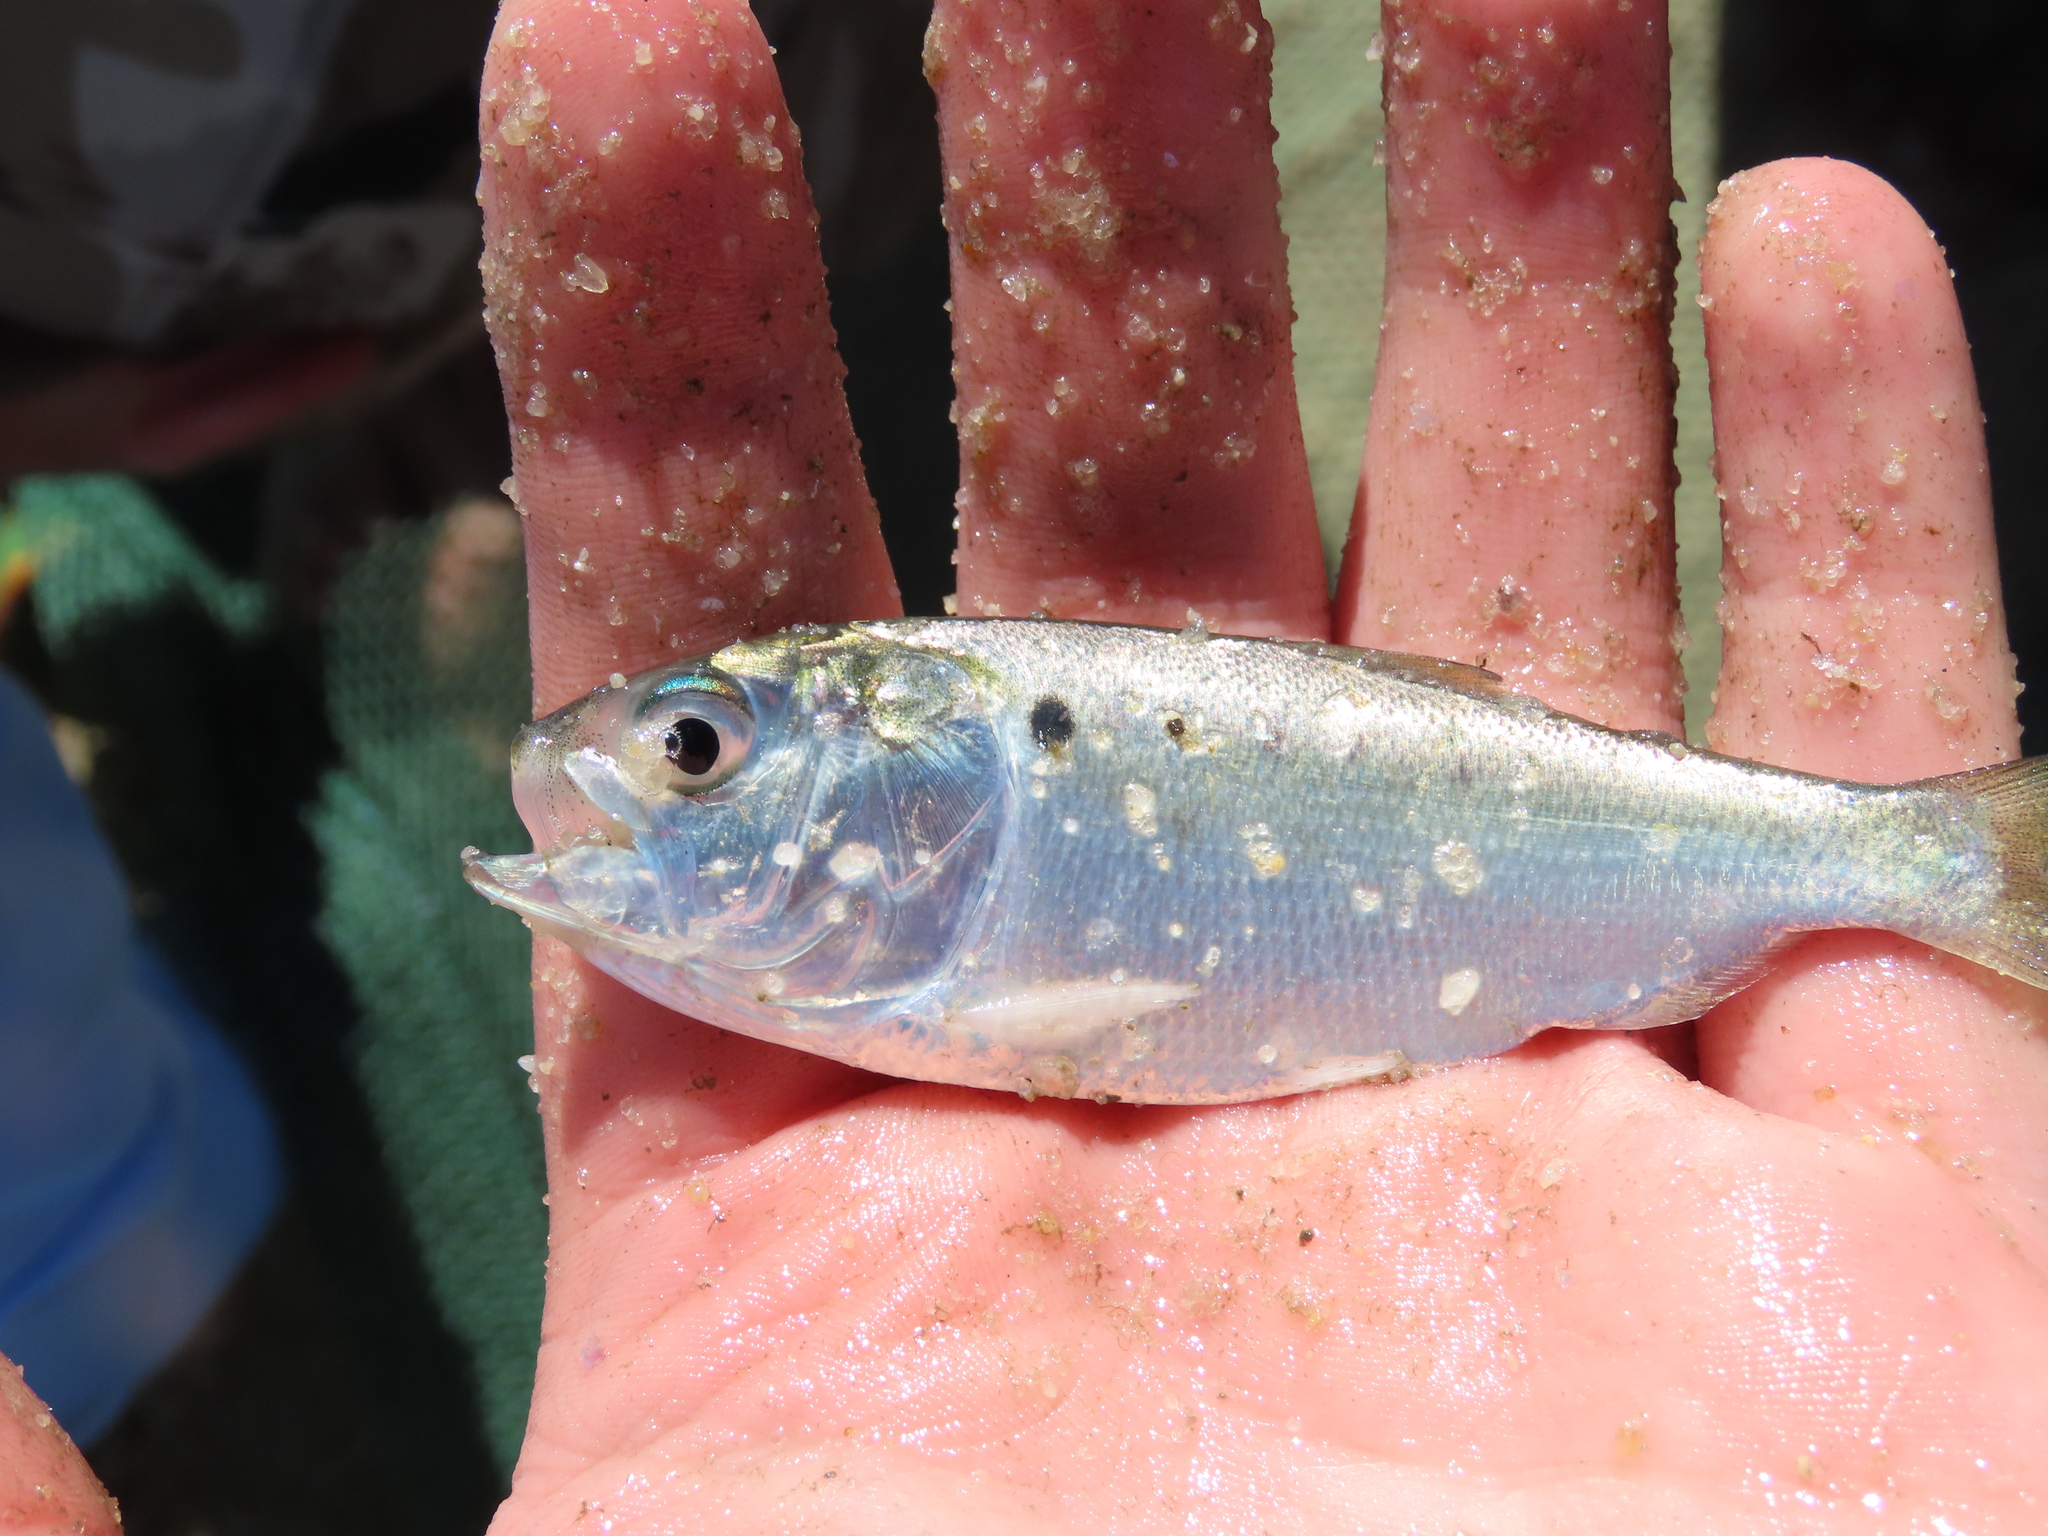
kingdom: Animalia
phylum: Chordata
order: Clupeiformes
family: Clupeidae
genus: Brevoortia
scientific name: Brevoortia tyrannus
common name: Atlantic menhaden
